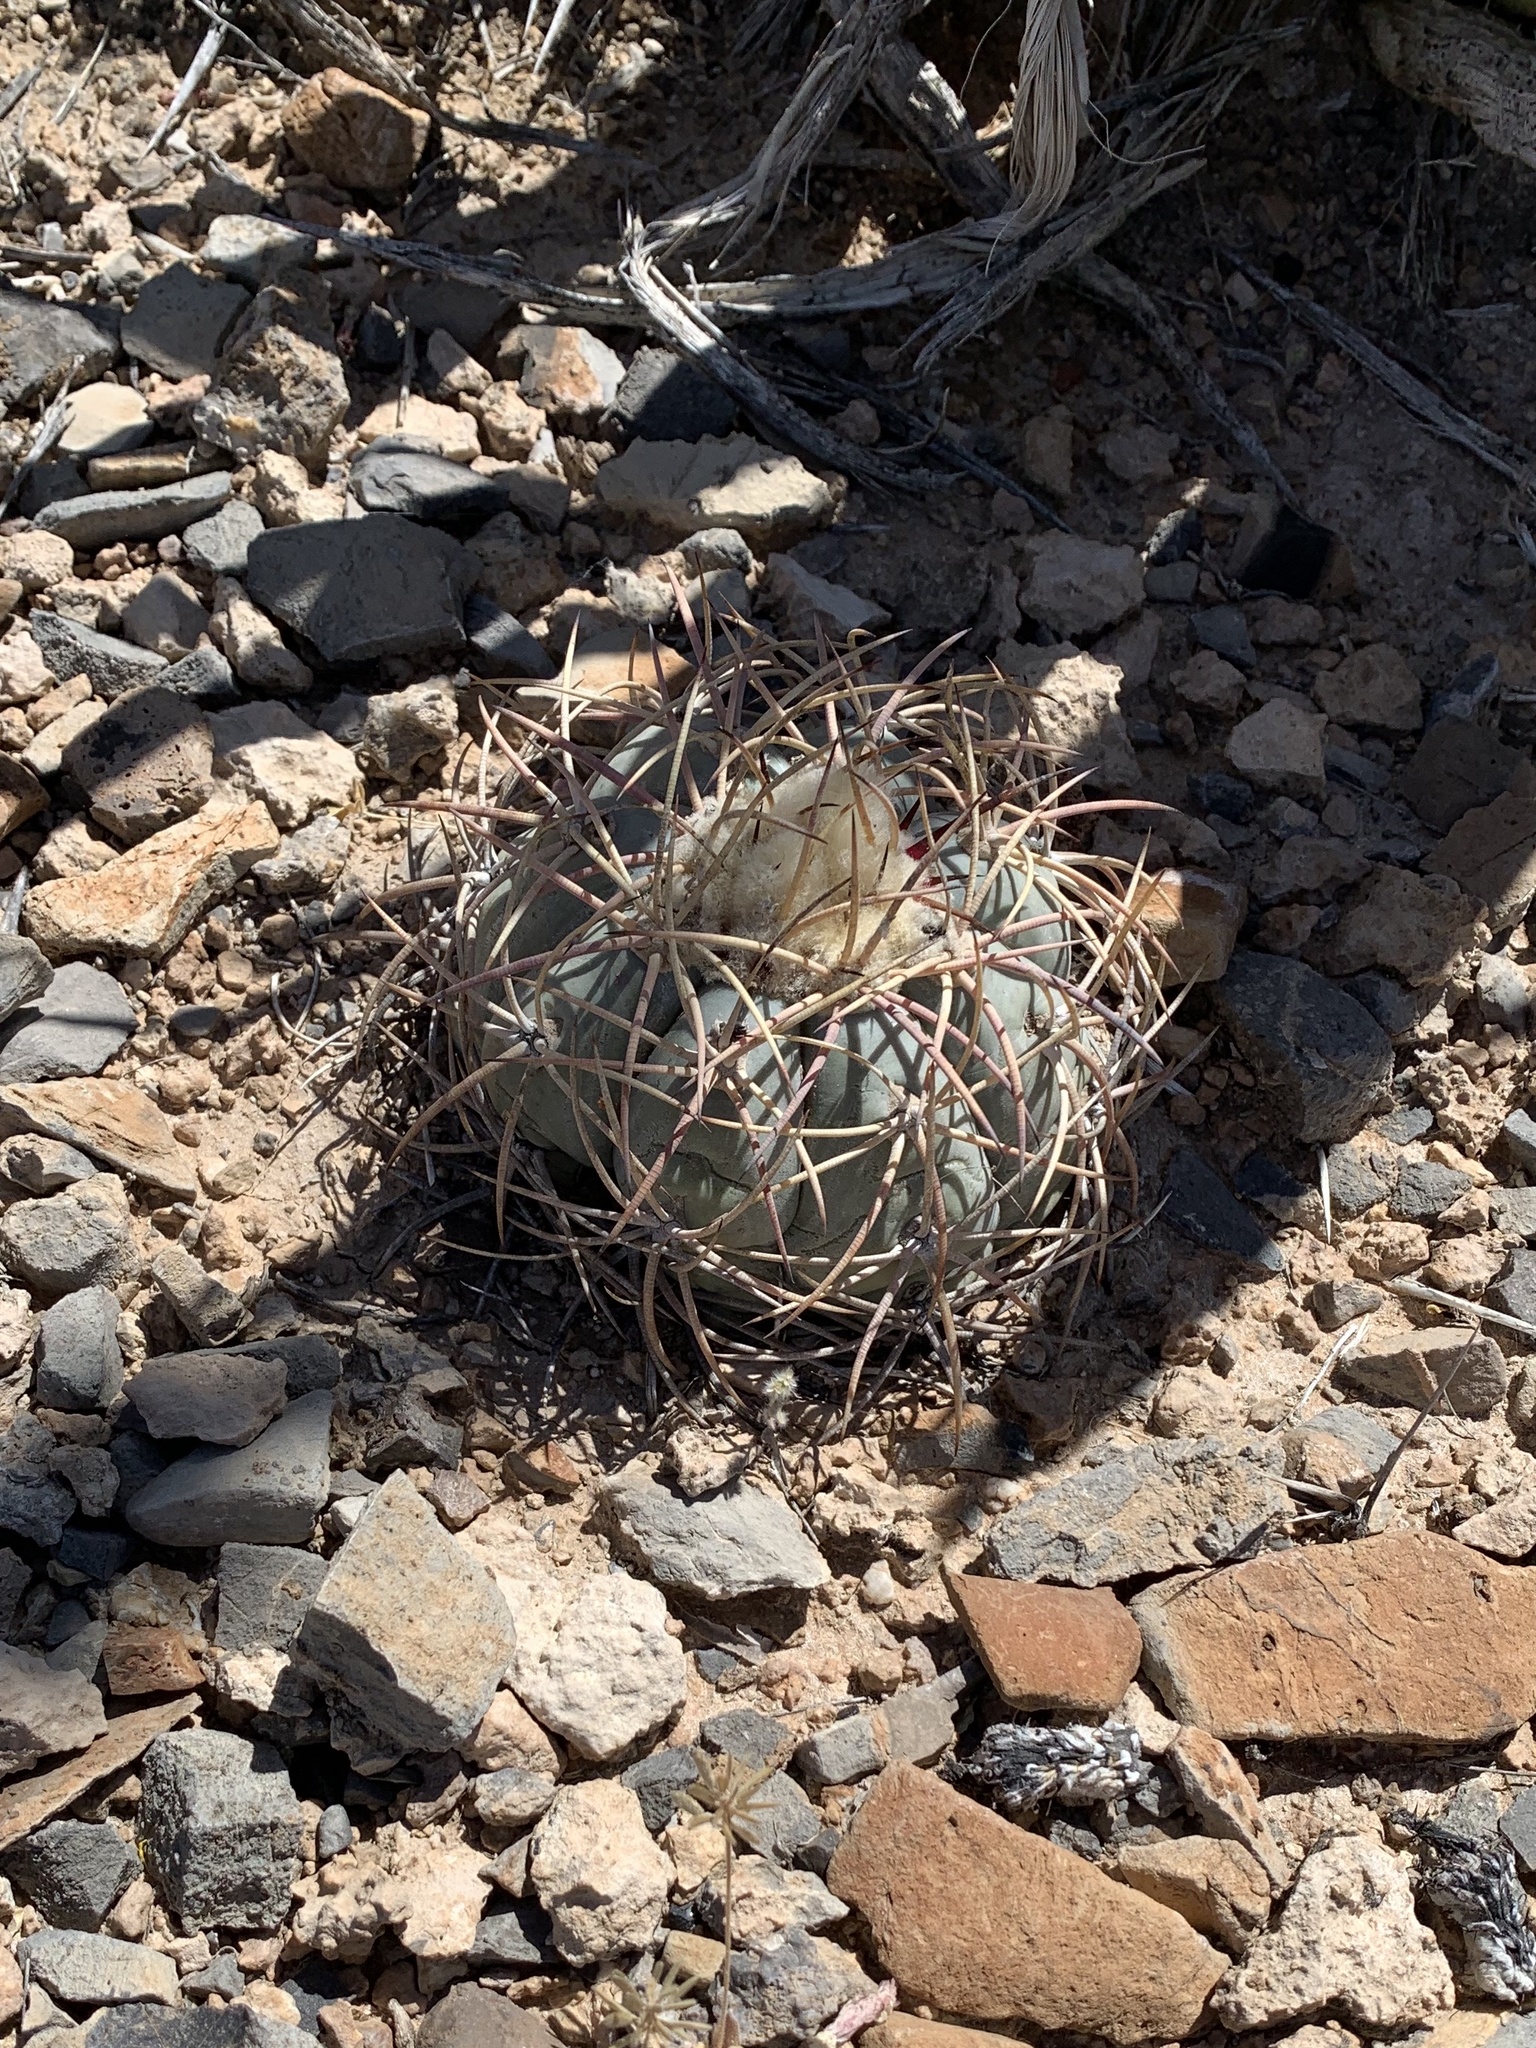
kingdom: Plantae
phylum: Tracheophyta
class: Magnoliopsida
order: Caryophyllales
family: Cactaceae
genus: Echinocactus
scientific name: Echinocactus horizonthalonius
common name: Devilshead
